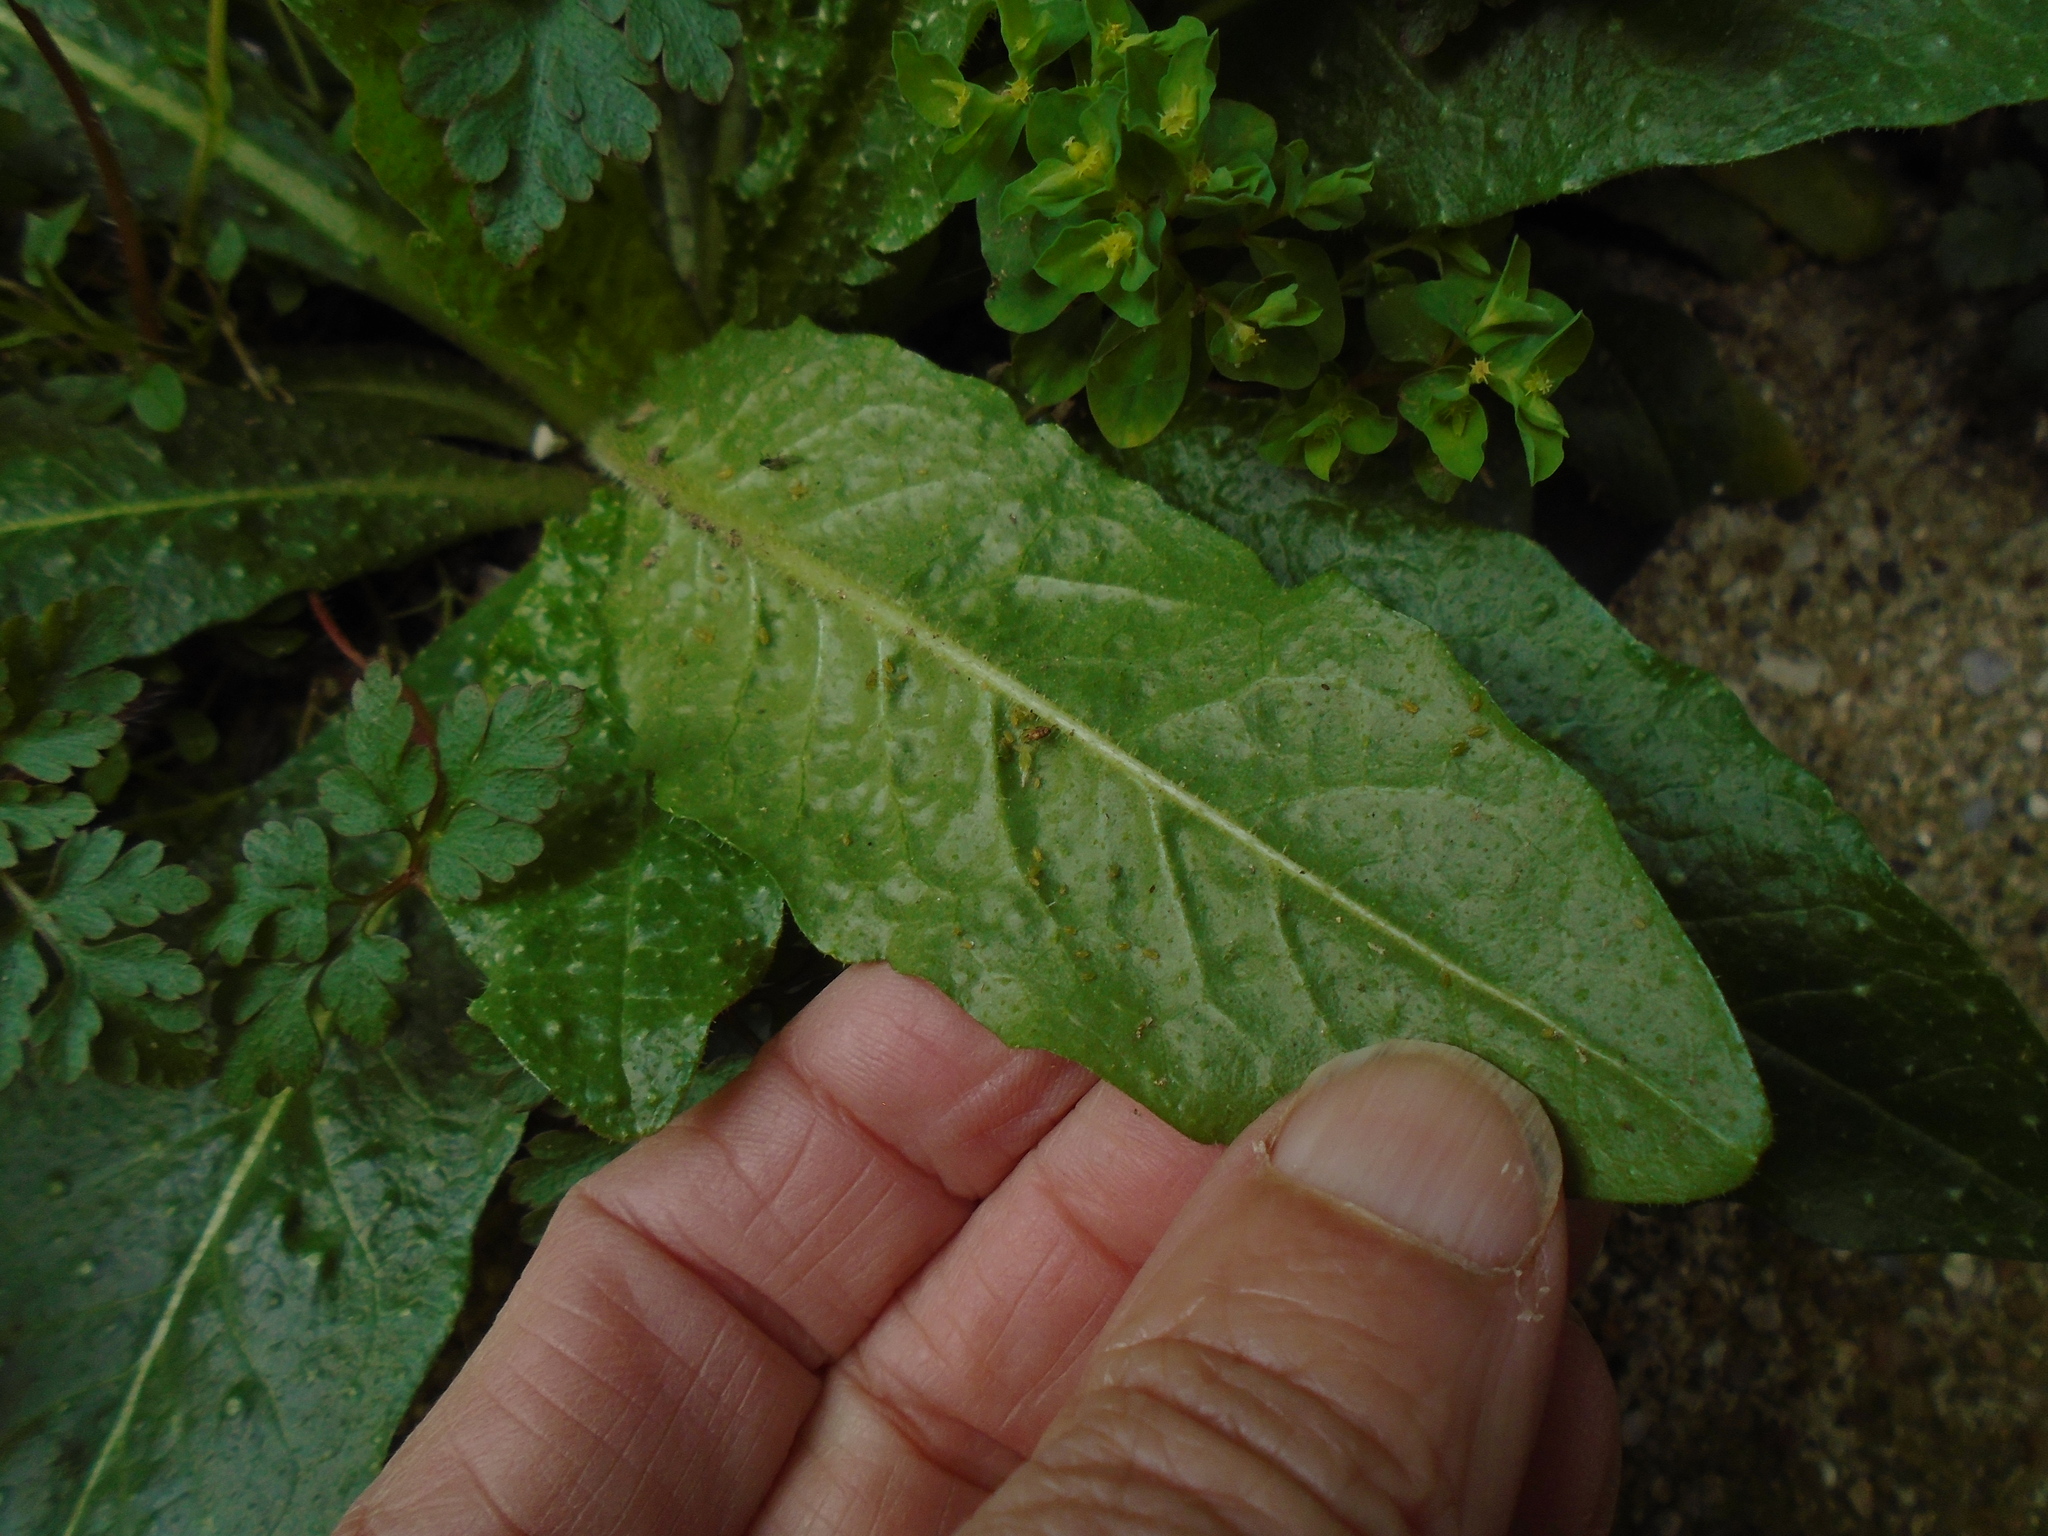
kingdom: Plantae
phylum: Tracheophyta
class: Magnoliopsida
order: Asterales
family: Asteraceae
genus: Helminthotheca
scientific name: Helminthotheca echioides
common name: Ox-tongue
